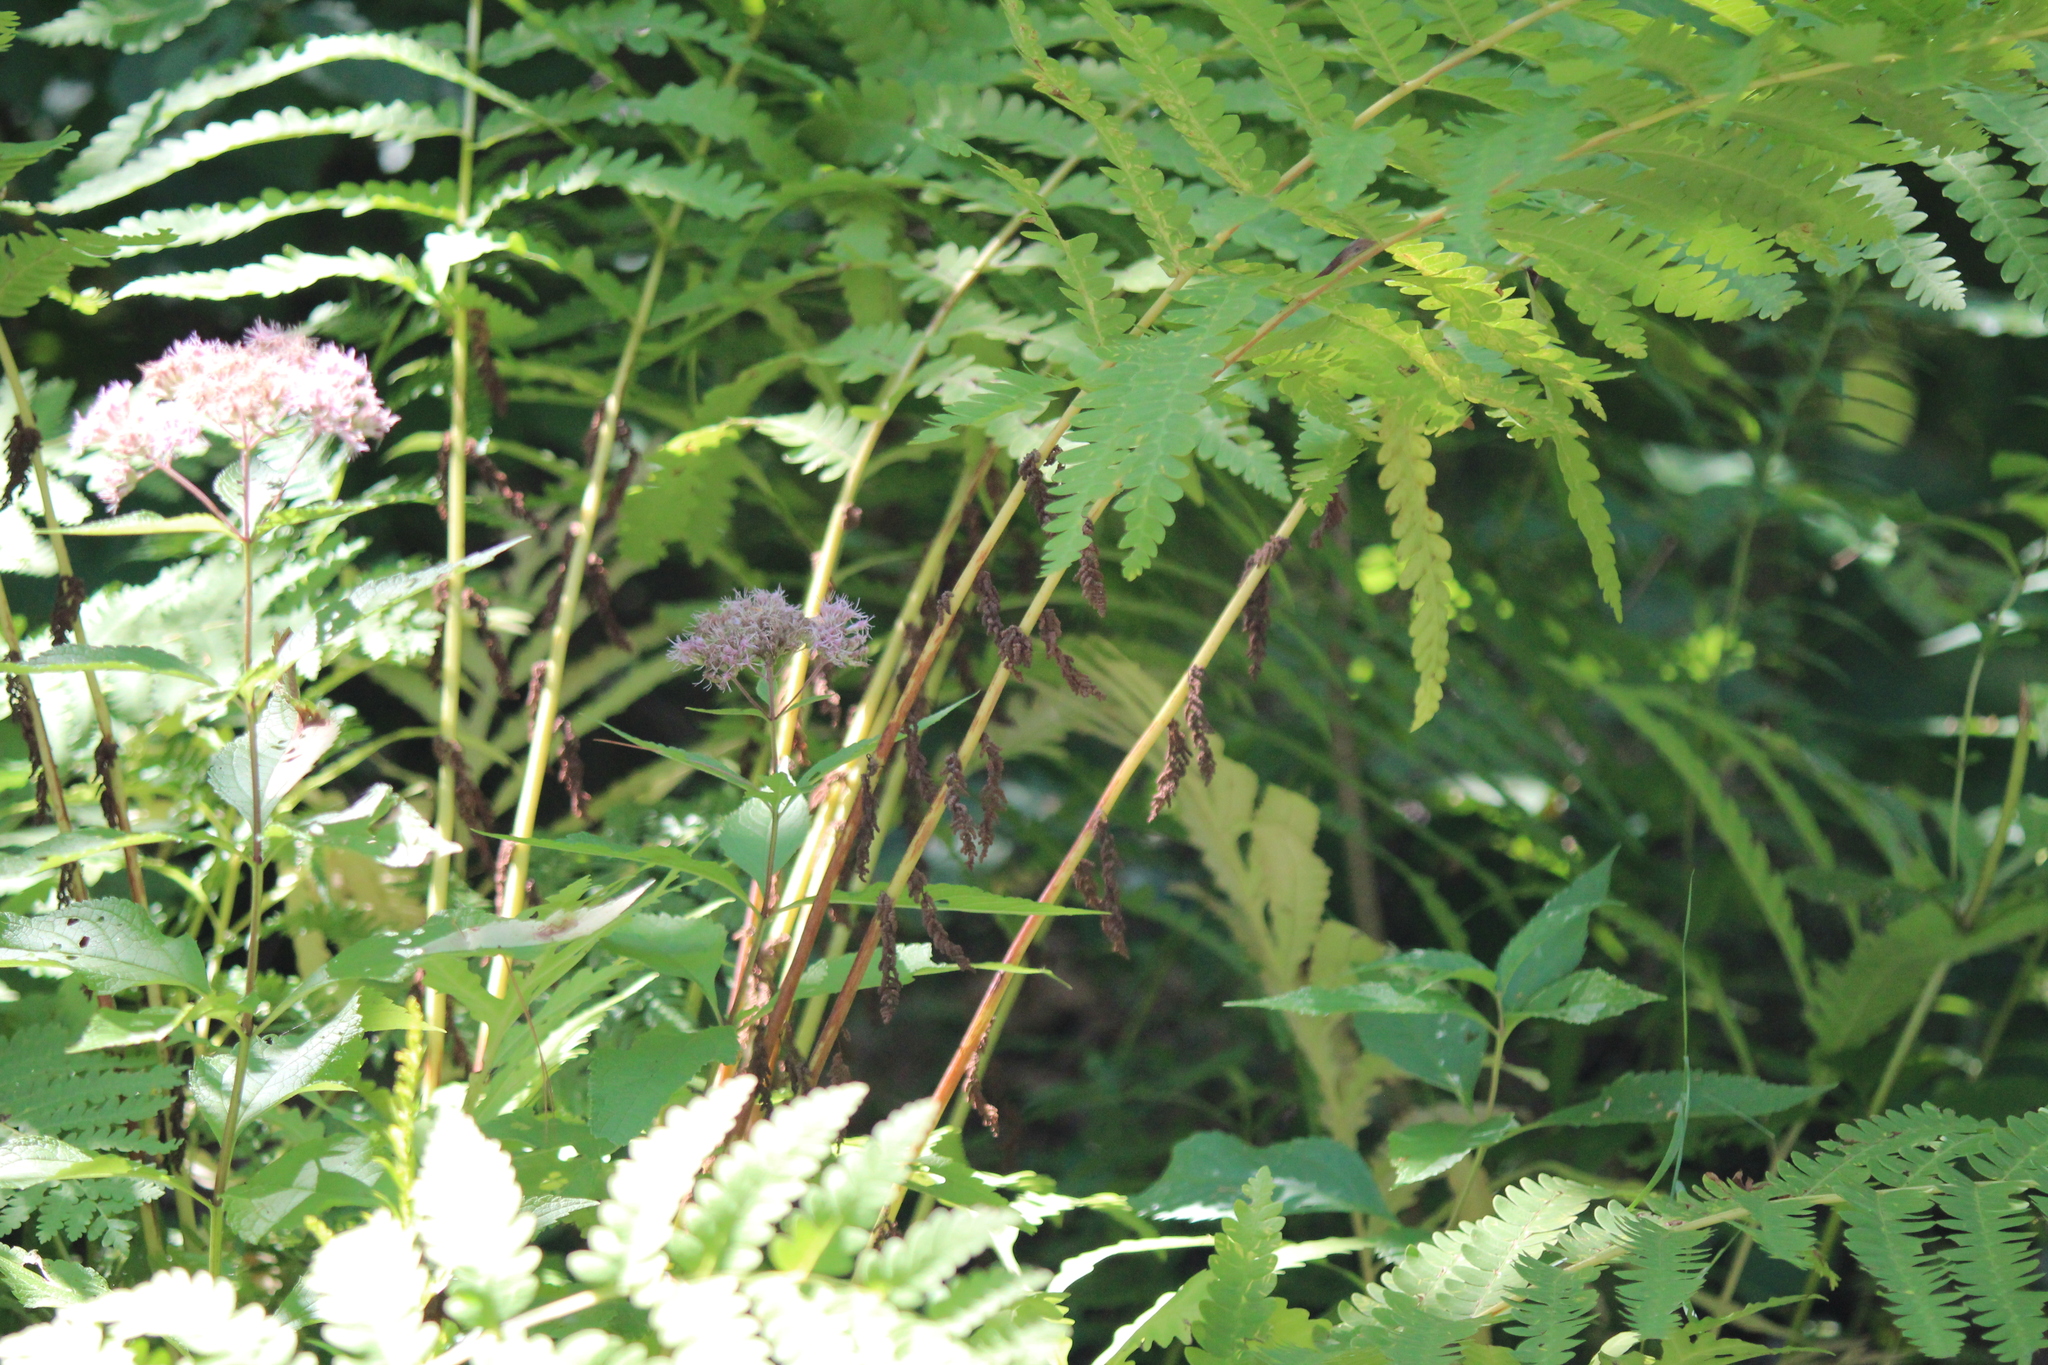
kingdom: Plantae
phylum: Tracheophyta
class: Polypodiopsida
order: Osmundales
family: Osmundaceae
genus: Claytosmunda
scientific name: Claytosmunda claytoniana
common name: Clayton's fern
